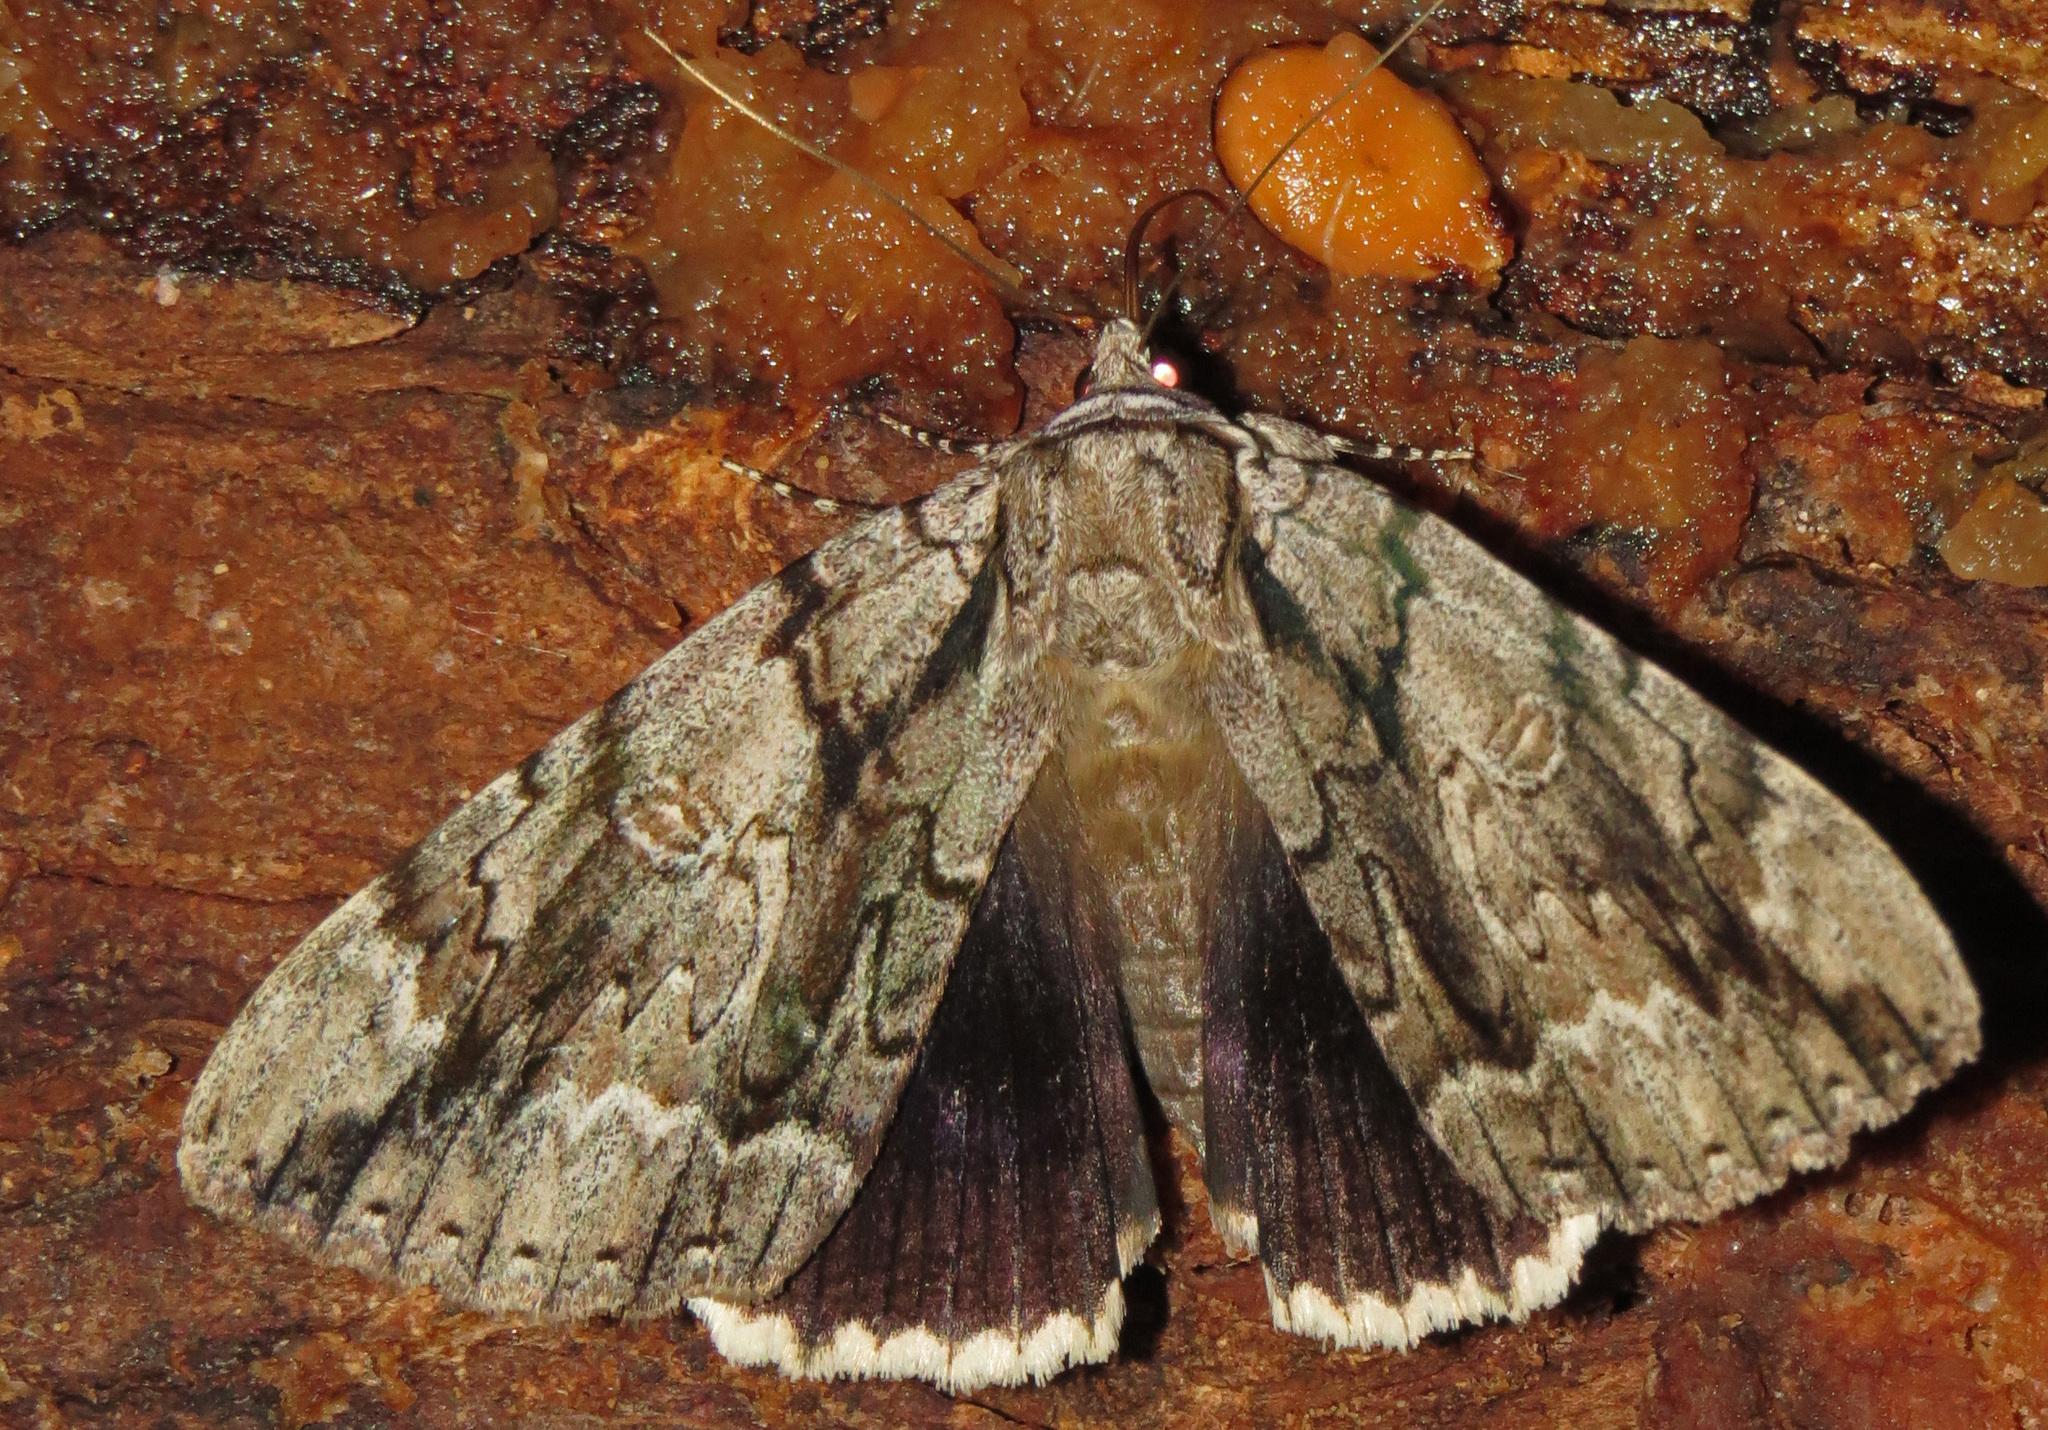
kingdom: Animalia
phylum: Arthropoda
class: Insecta
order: Lepidoptera
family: Erebidae
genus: Catocala
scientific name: Catocala vidua
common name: The widow
